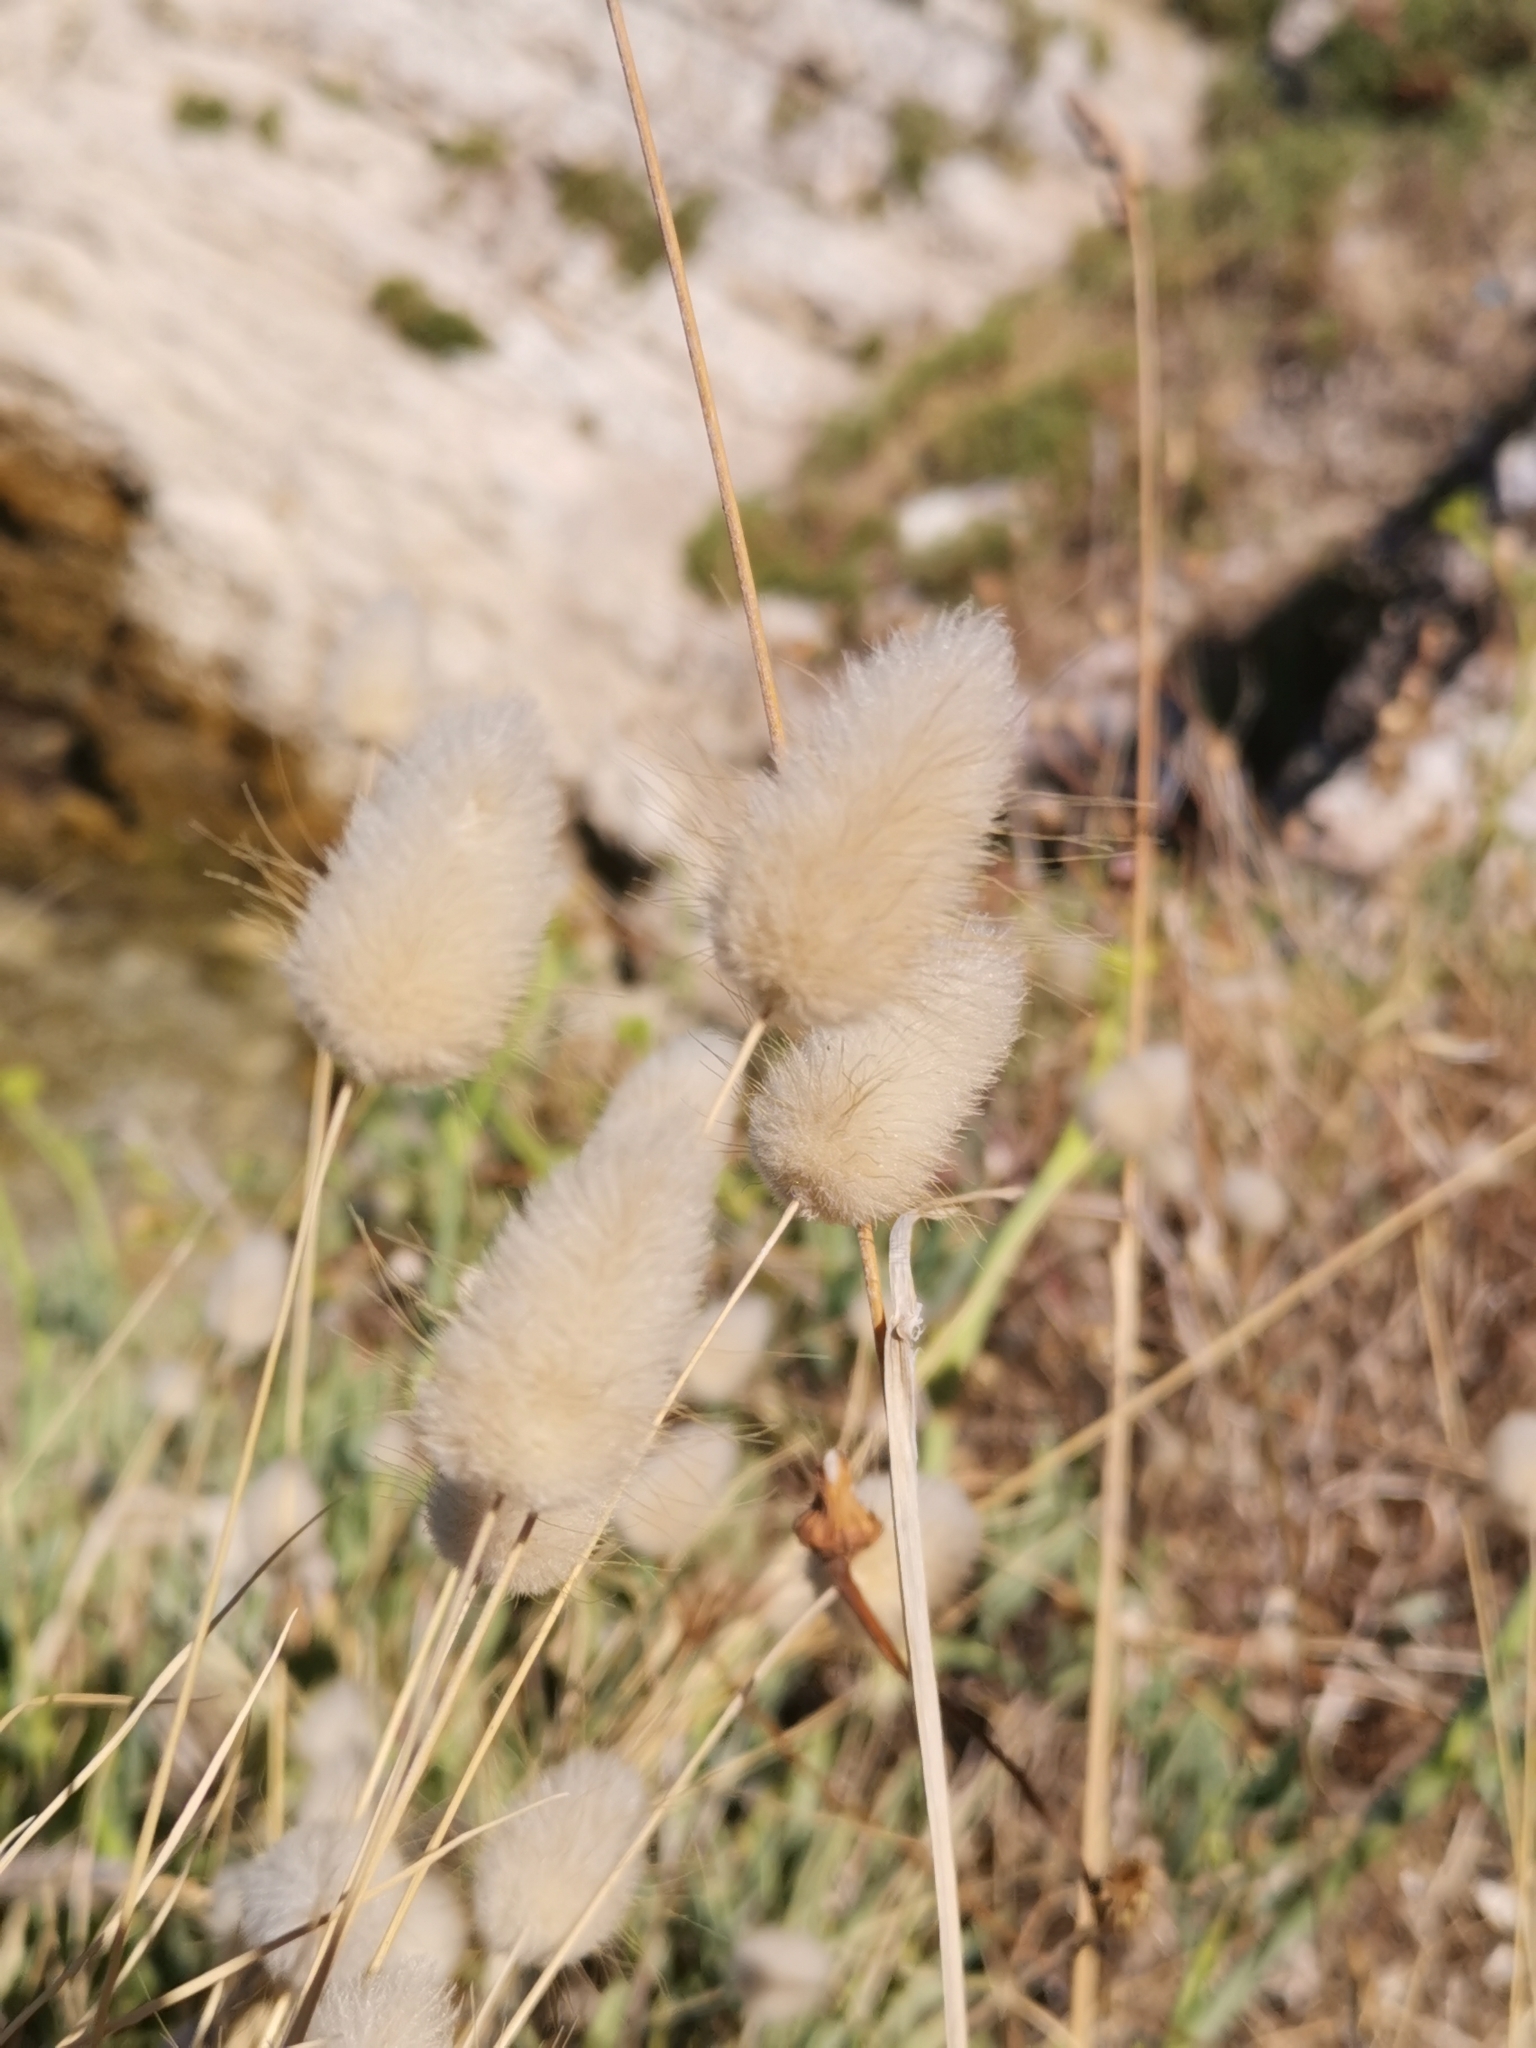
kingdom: Plantae
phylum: Tracheophyta
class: Liliopsida
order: Poales
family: Poaceae
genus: Lagurus
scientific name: Lagurus ovatus
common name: Hare's-tail
